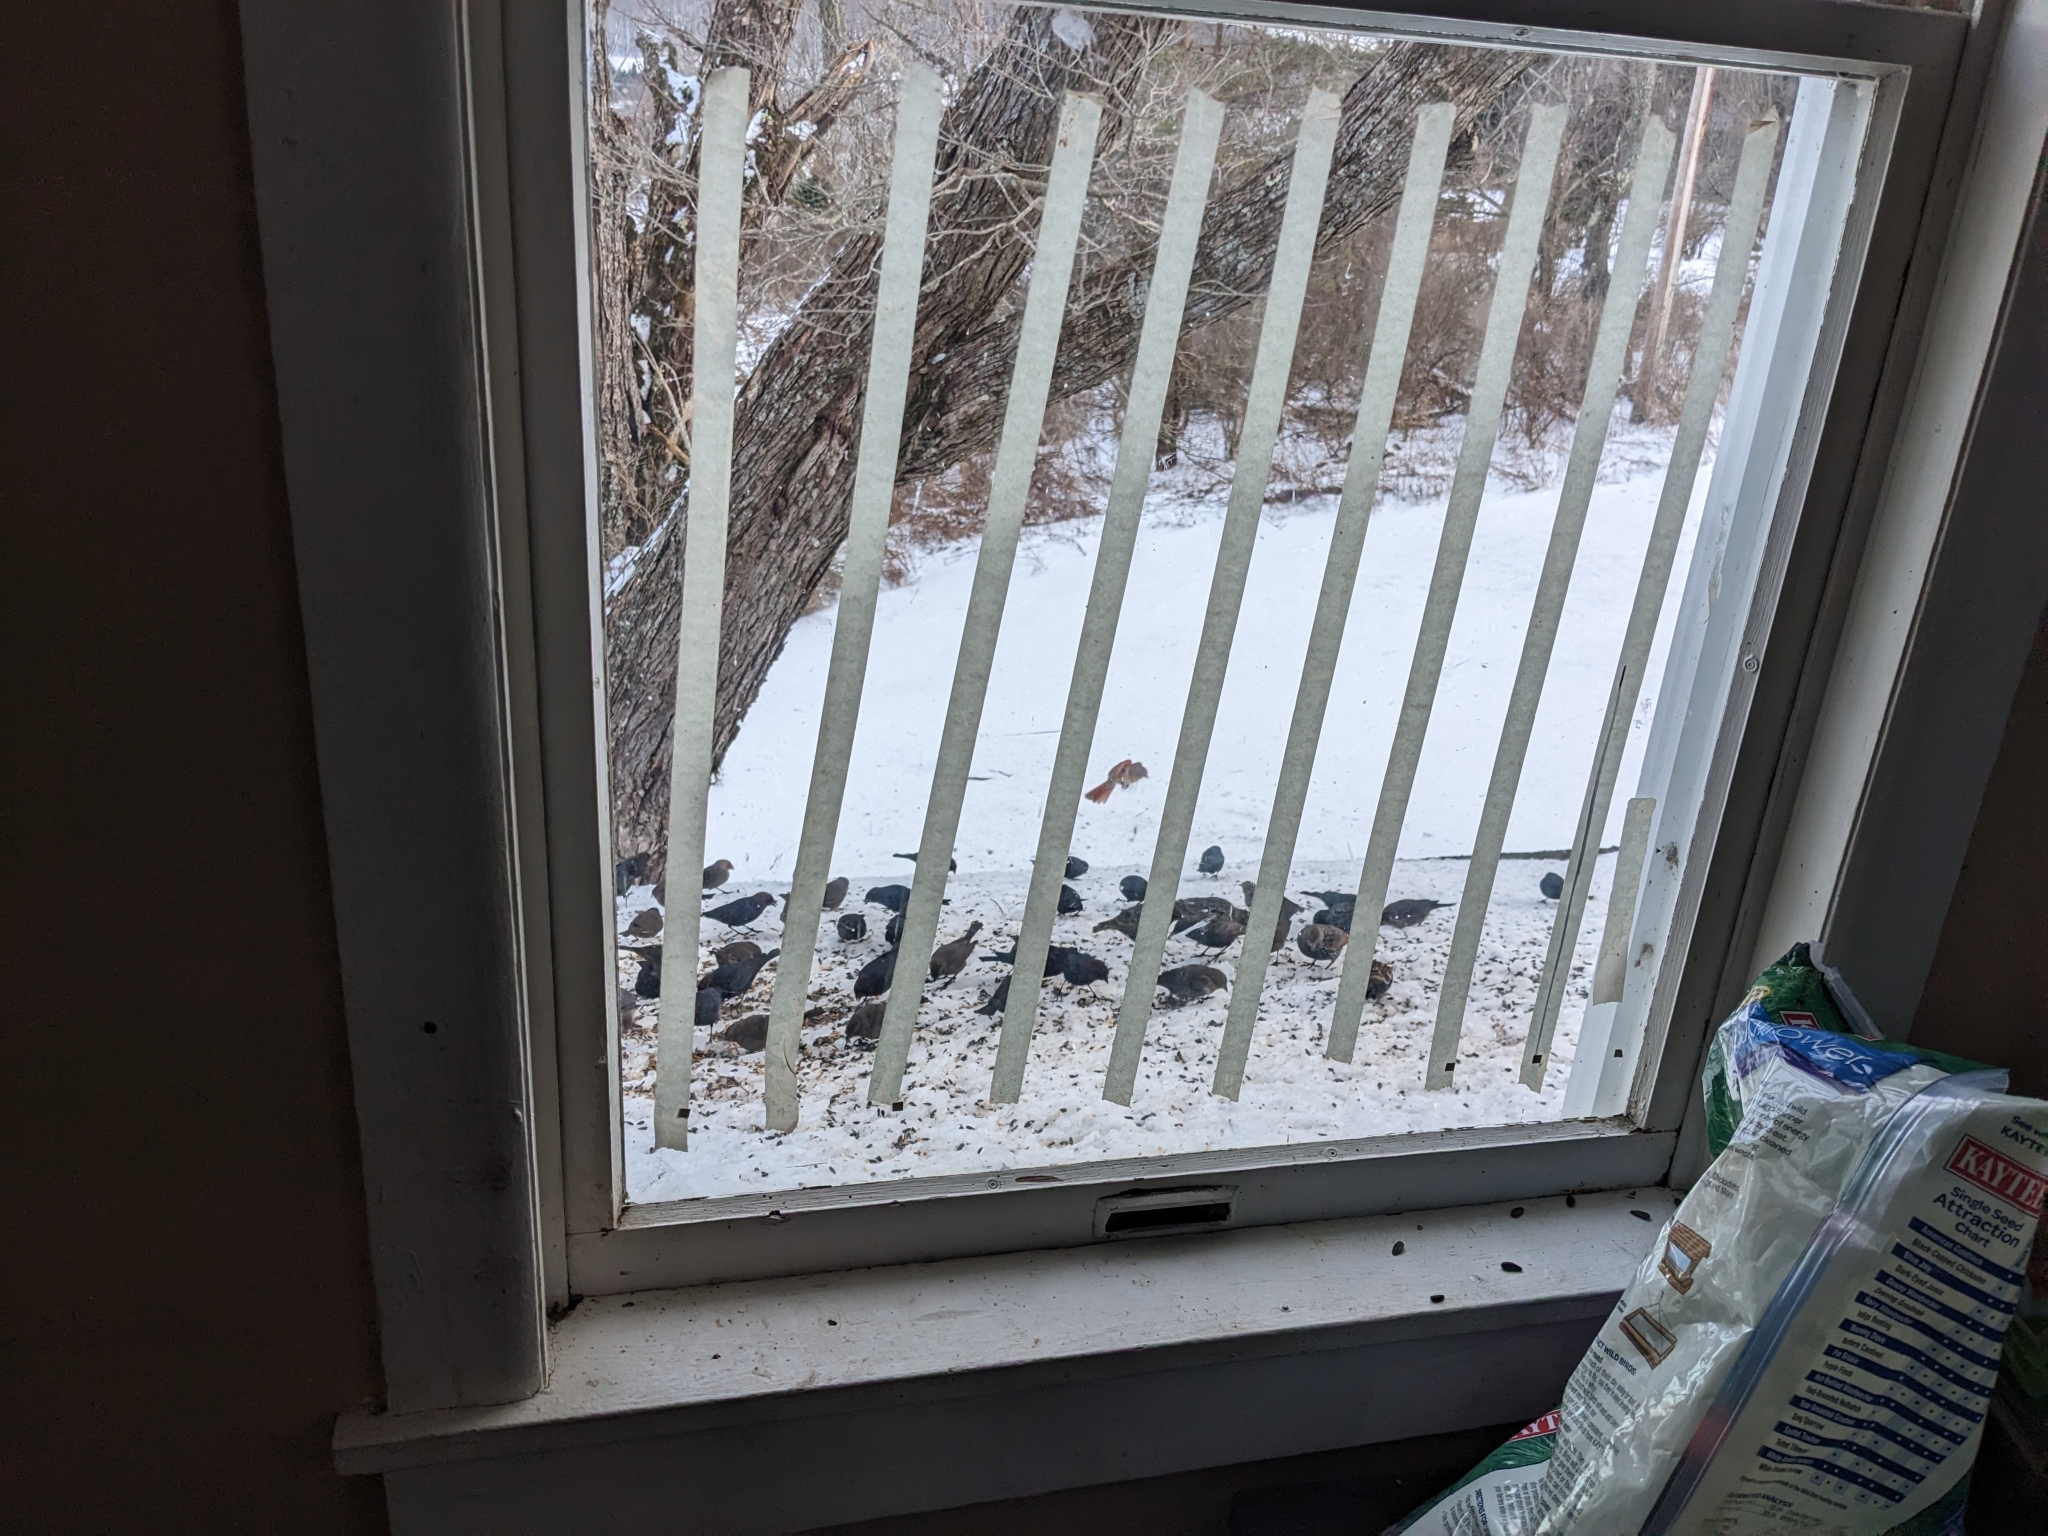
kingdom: Animalia
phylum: Chordata
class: Aves
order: Passeriformes
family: Icteridae
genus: Molothrus
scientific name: Molothrus ater
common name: Brown-headed cowbird
